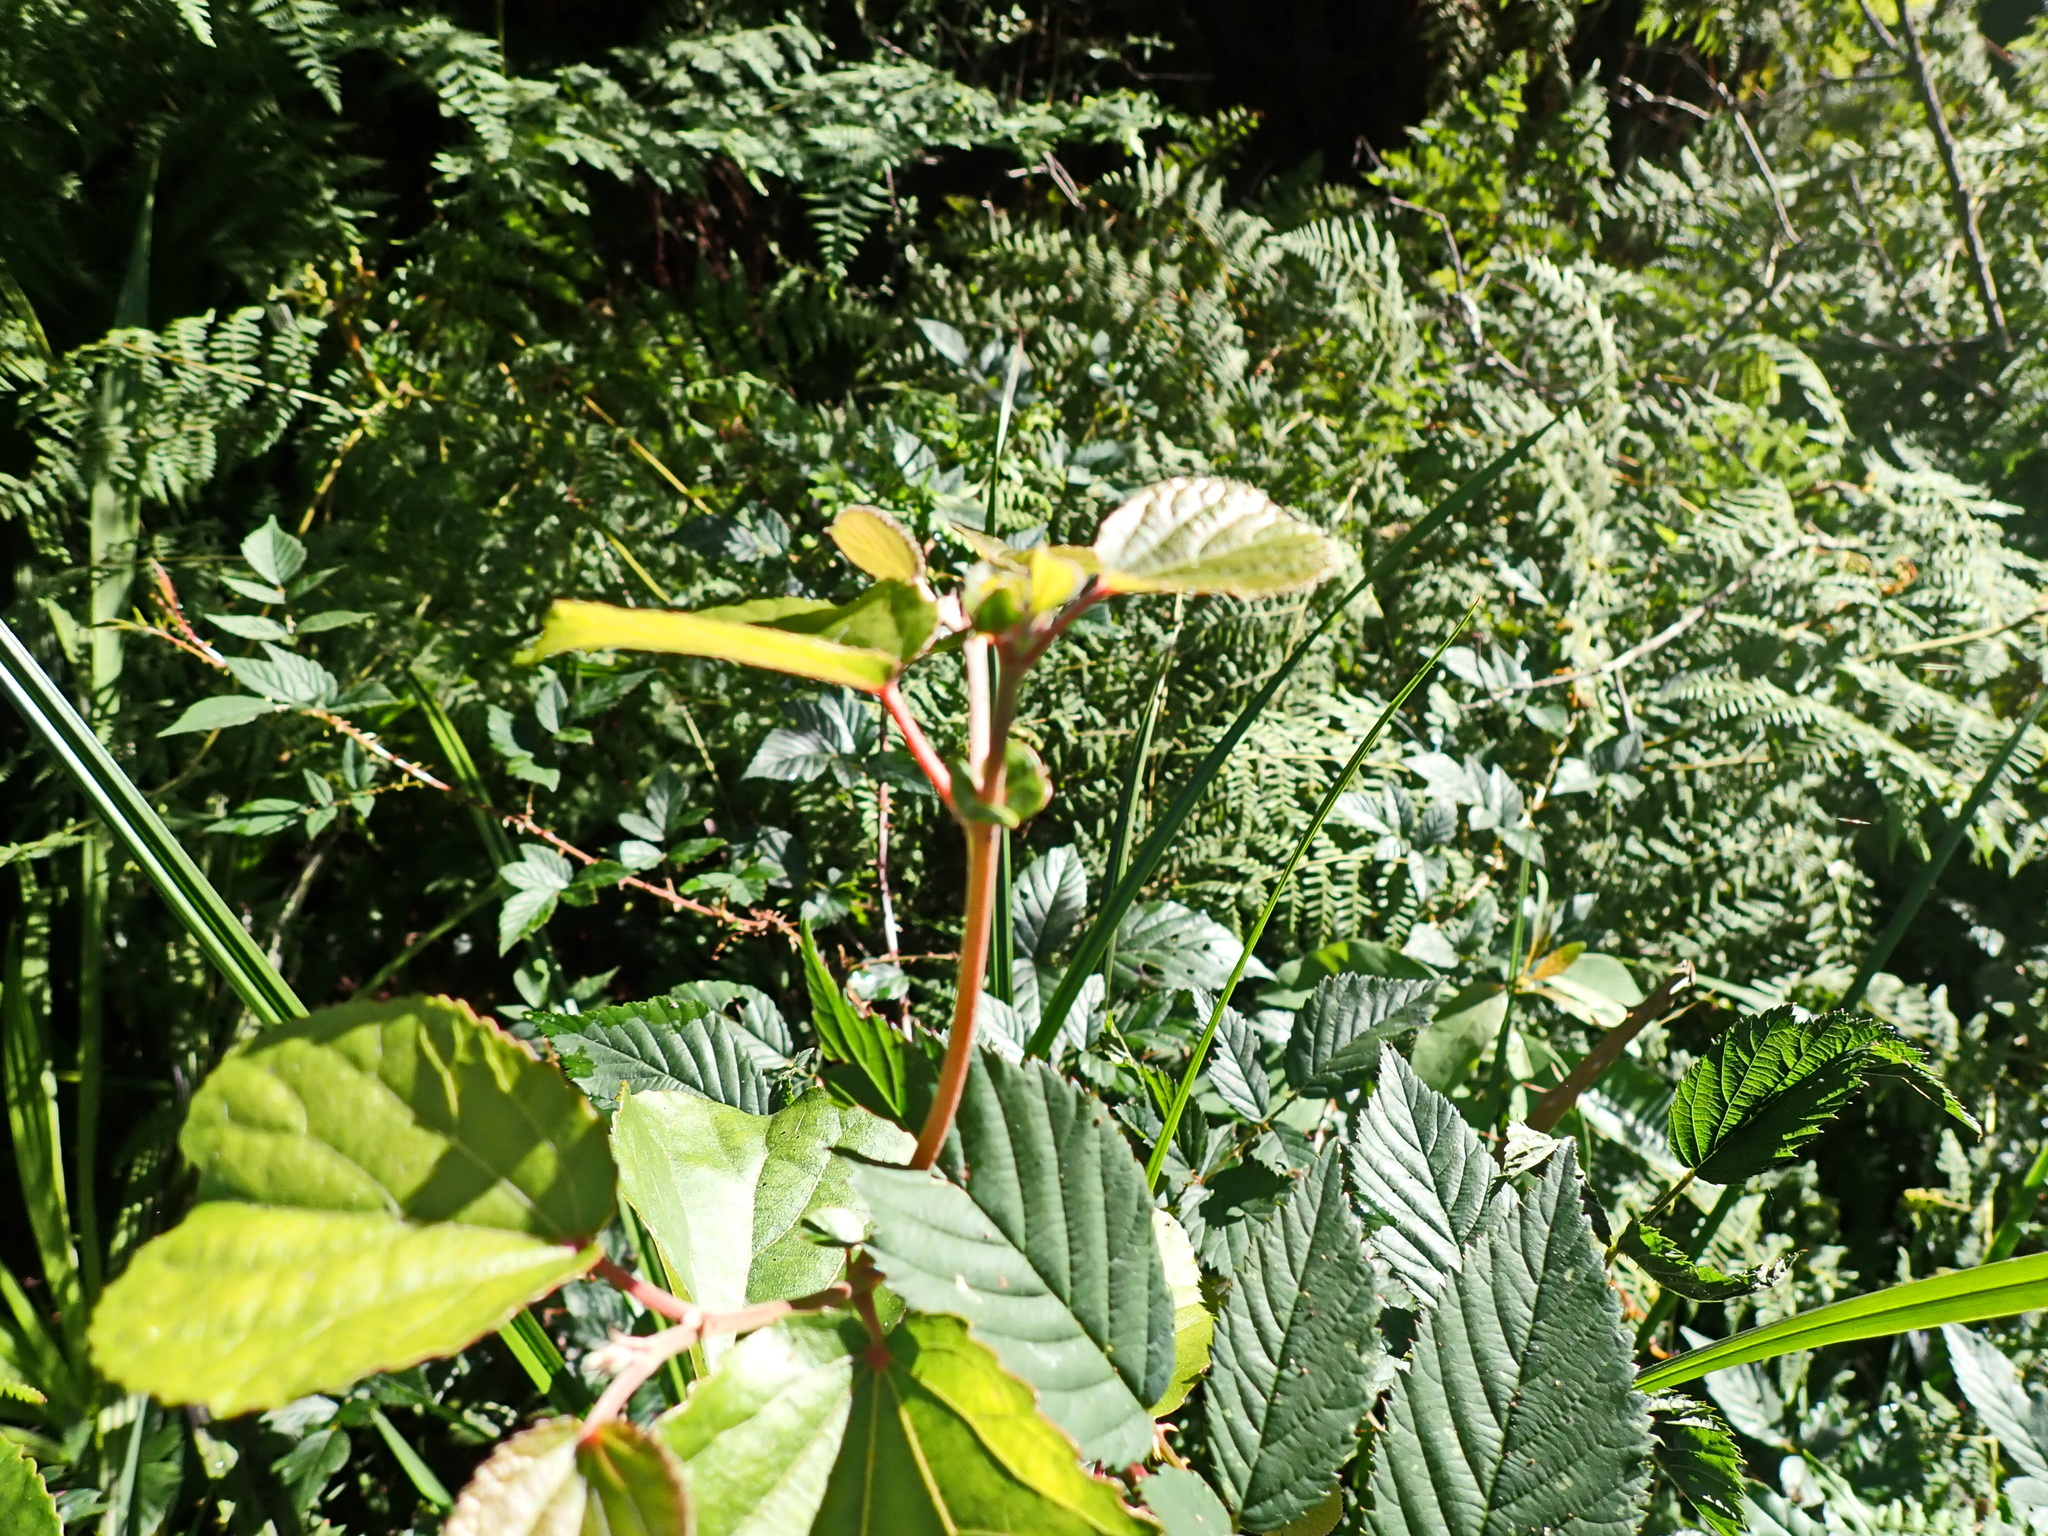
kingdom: Plantae
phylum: Tracheophyta
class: Magnoliopsida
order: Malpighiales
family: Salicaceae
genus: Trimeria
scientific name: Trimeria grandifolia
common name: Wild mulberry
